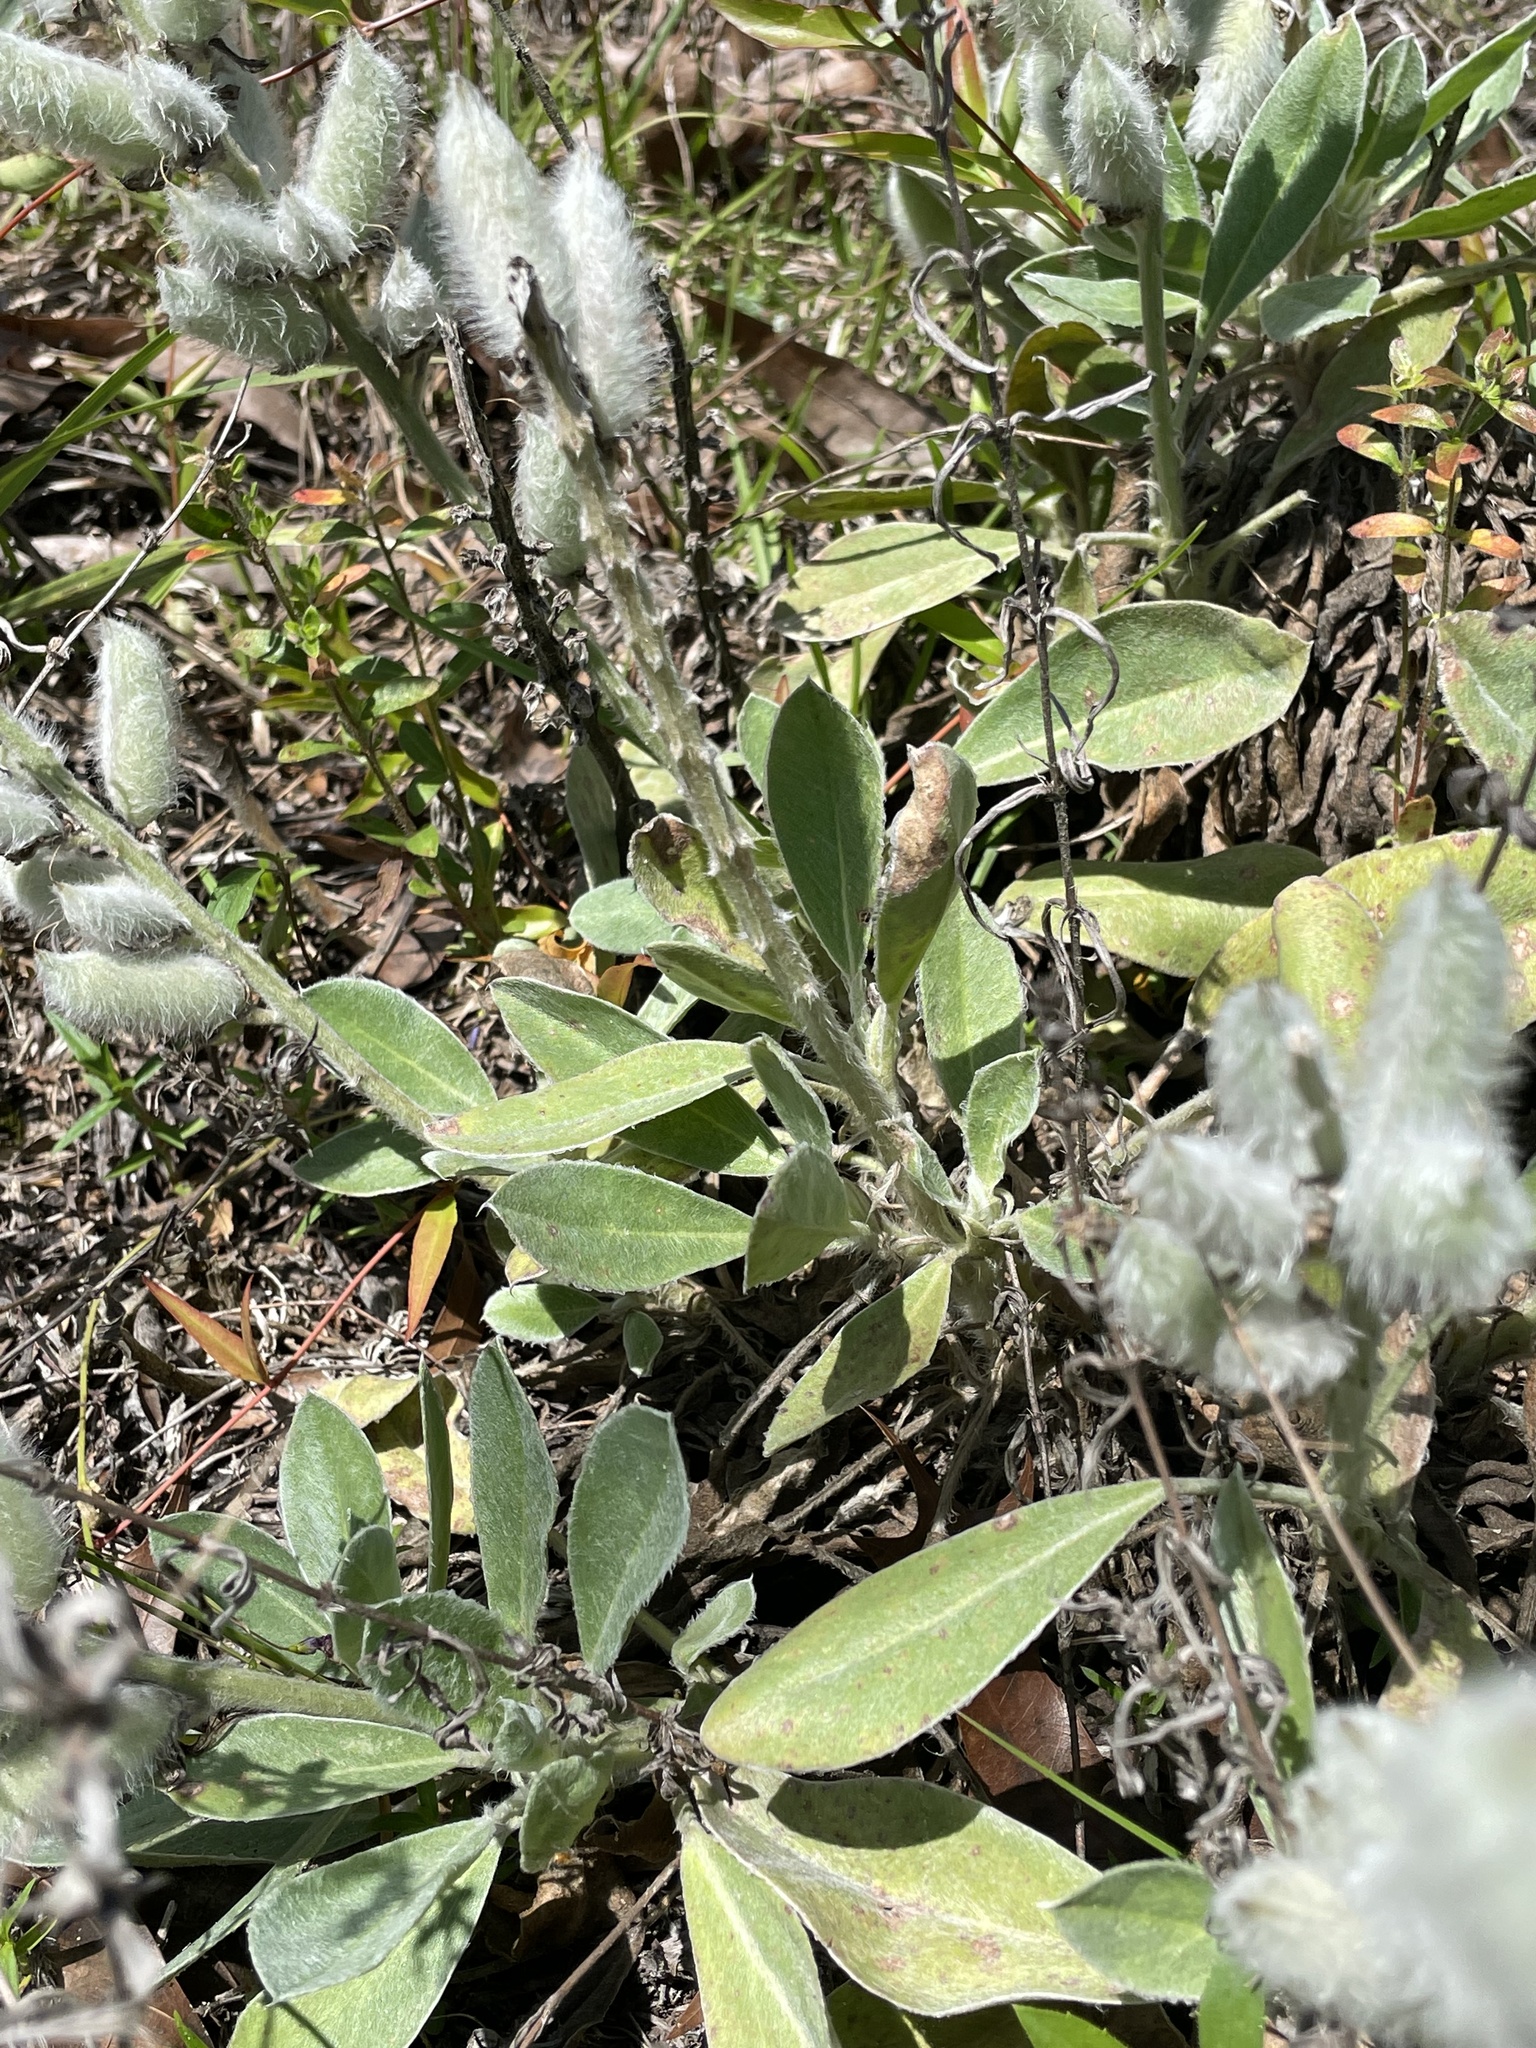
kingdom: Plantae
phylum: Tracheophyta
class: Magnoliopsida
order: Fabales
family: Fabaceae
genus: Lupinus
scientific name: Lupinus villosus
